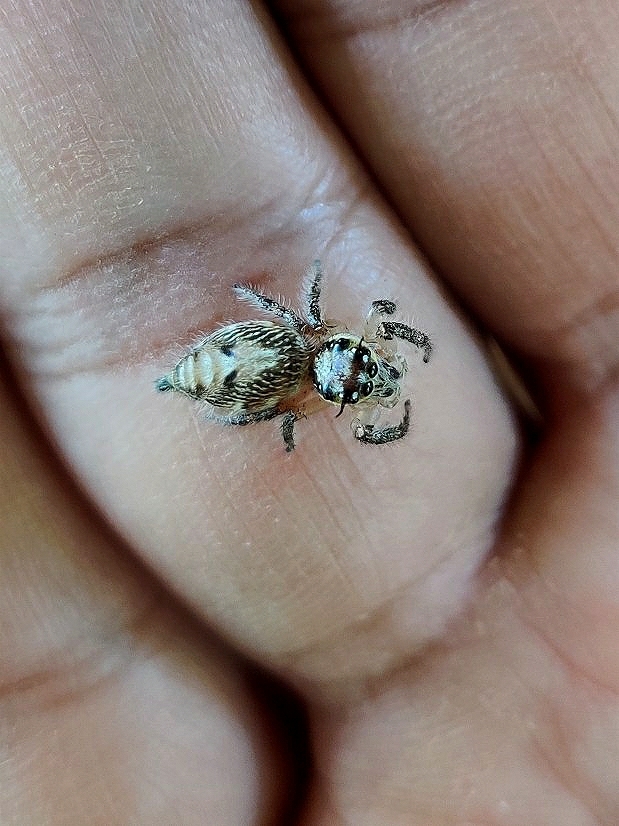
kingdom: Animalia
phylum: Arthropoda
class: Arachnida
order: Araneae
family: Salticidae
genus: Hyllus
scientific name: Hyllus semicupreus
